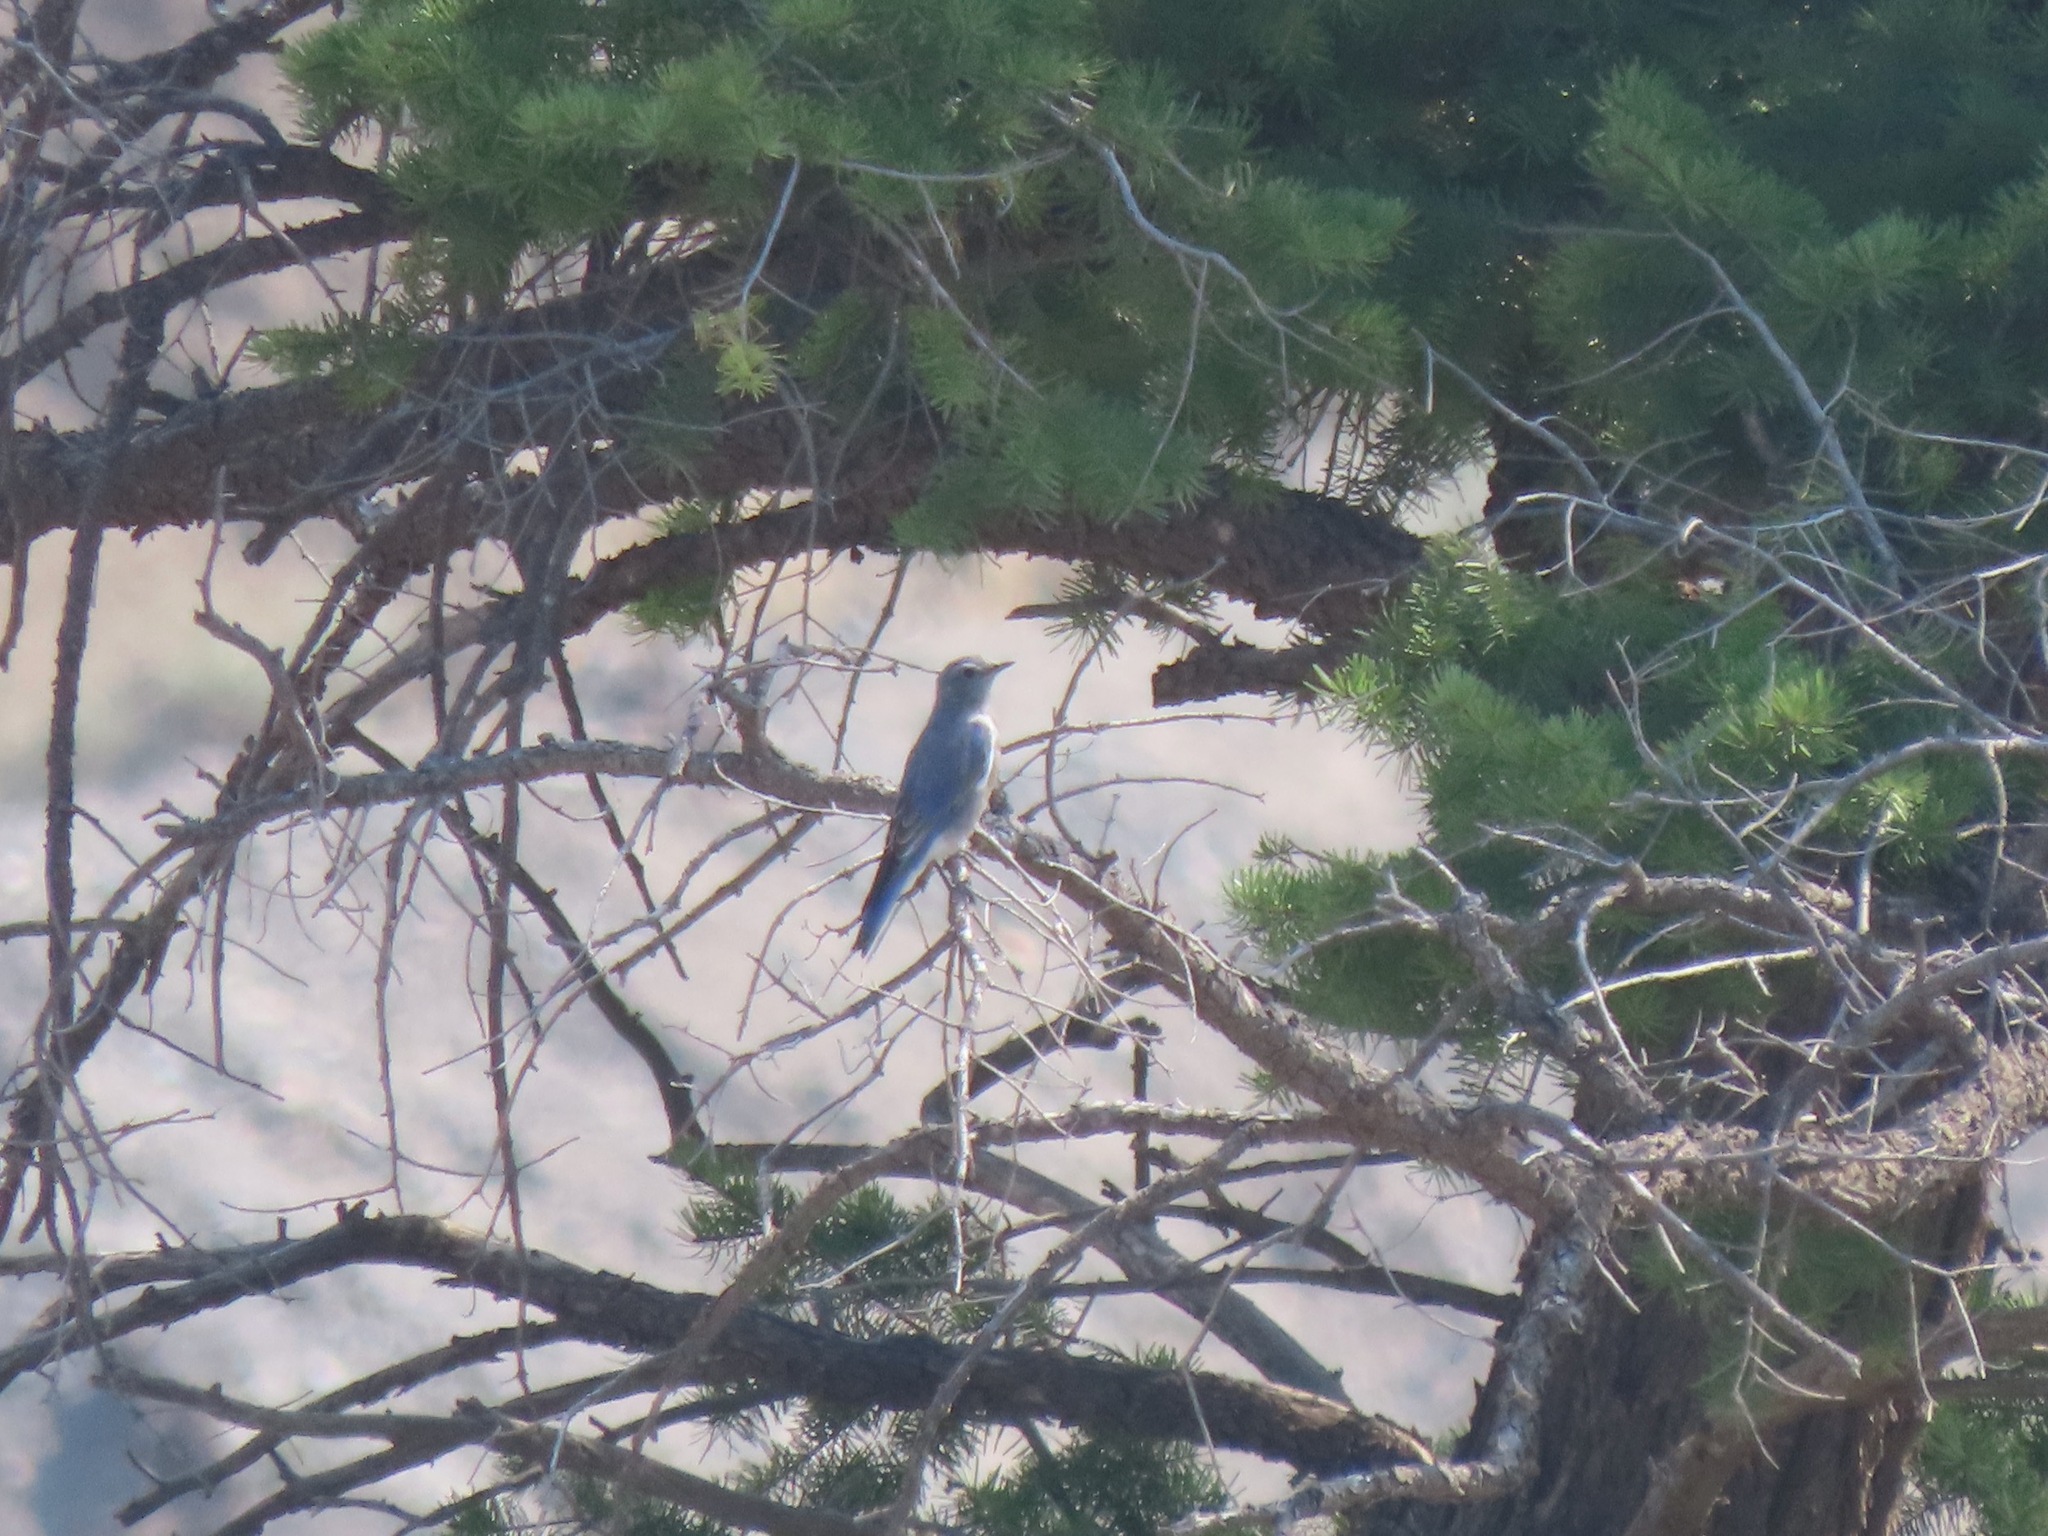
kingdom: Animalia
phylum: Chordata
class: Aves
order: Passeriformes
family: Turdidae
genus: Sialia
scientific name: Sialia currucoides
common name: Mountain bluebird
